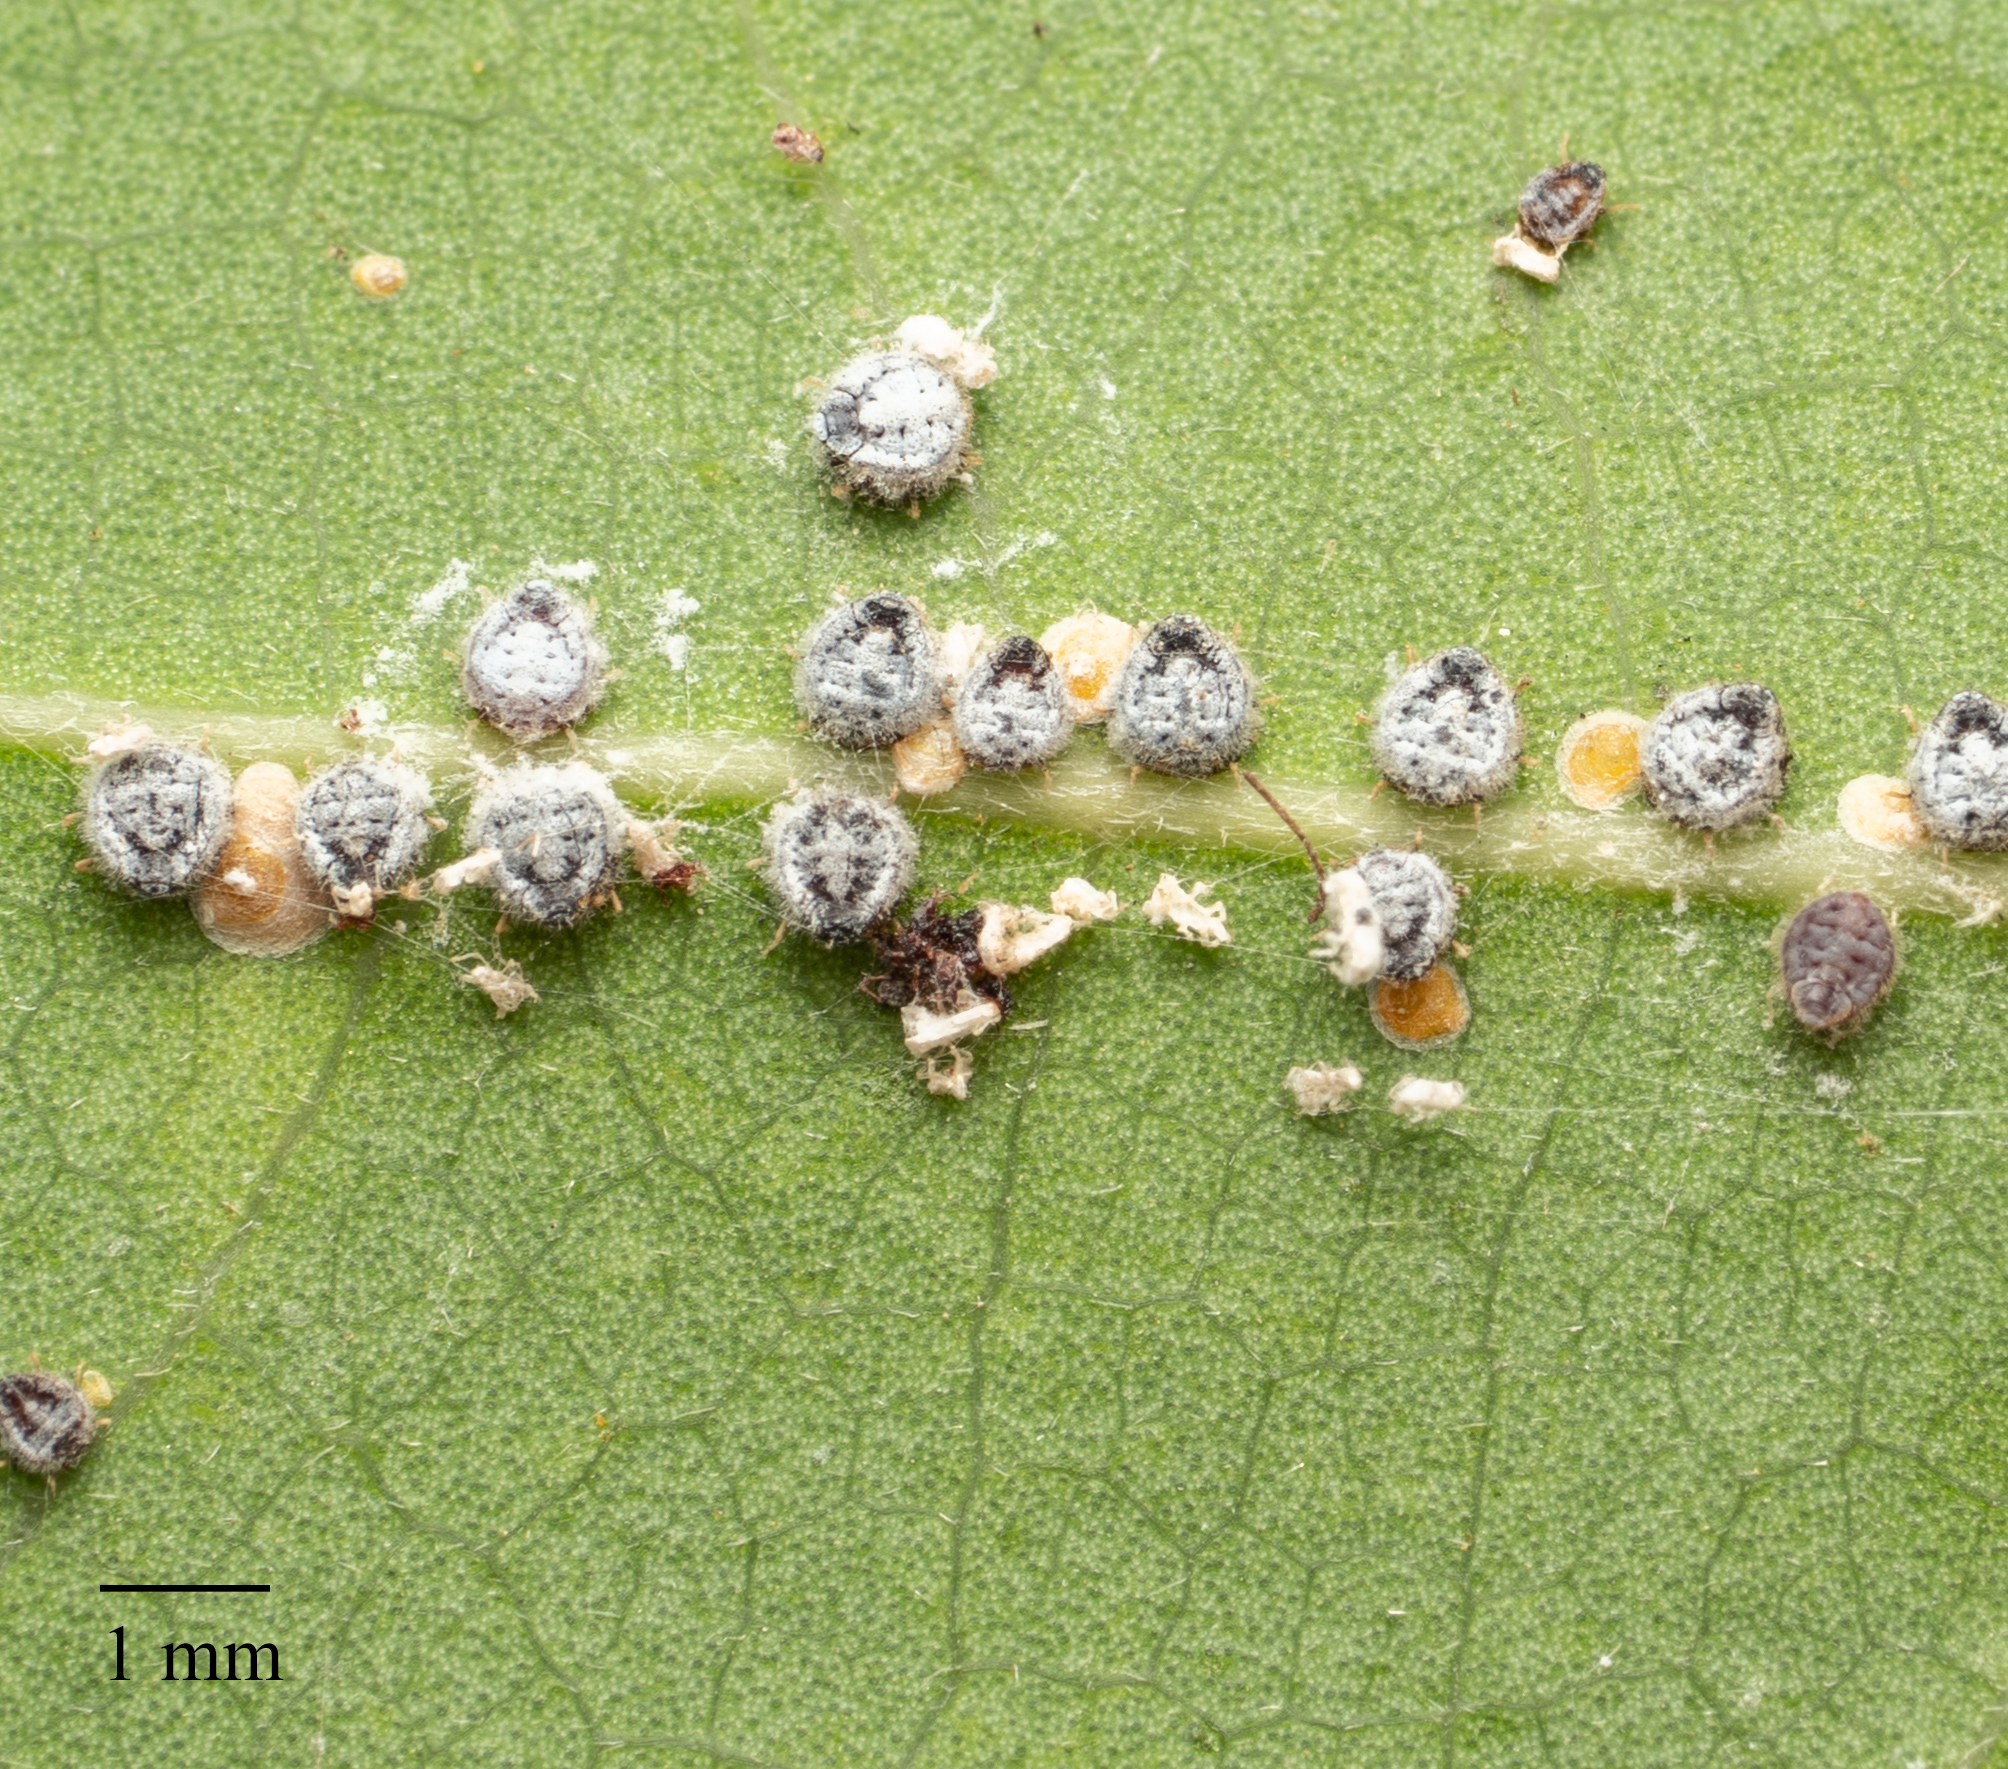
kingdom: Animalia
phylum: Arthropoda
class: Insecta
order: Hemiptera
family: Aphididae
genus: Euthoracaphis
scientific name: Euthoracaphis umbellulariae
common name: Aphid
